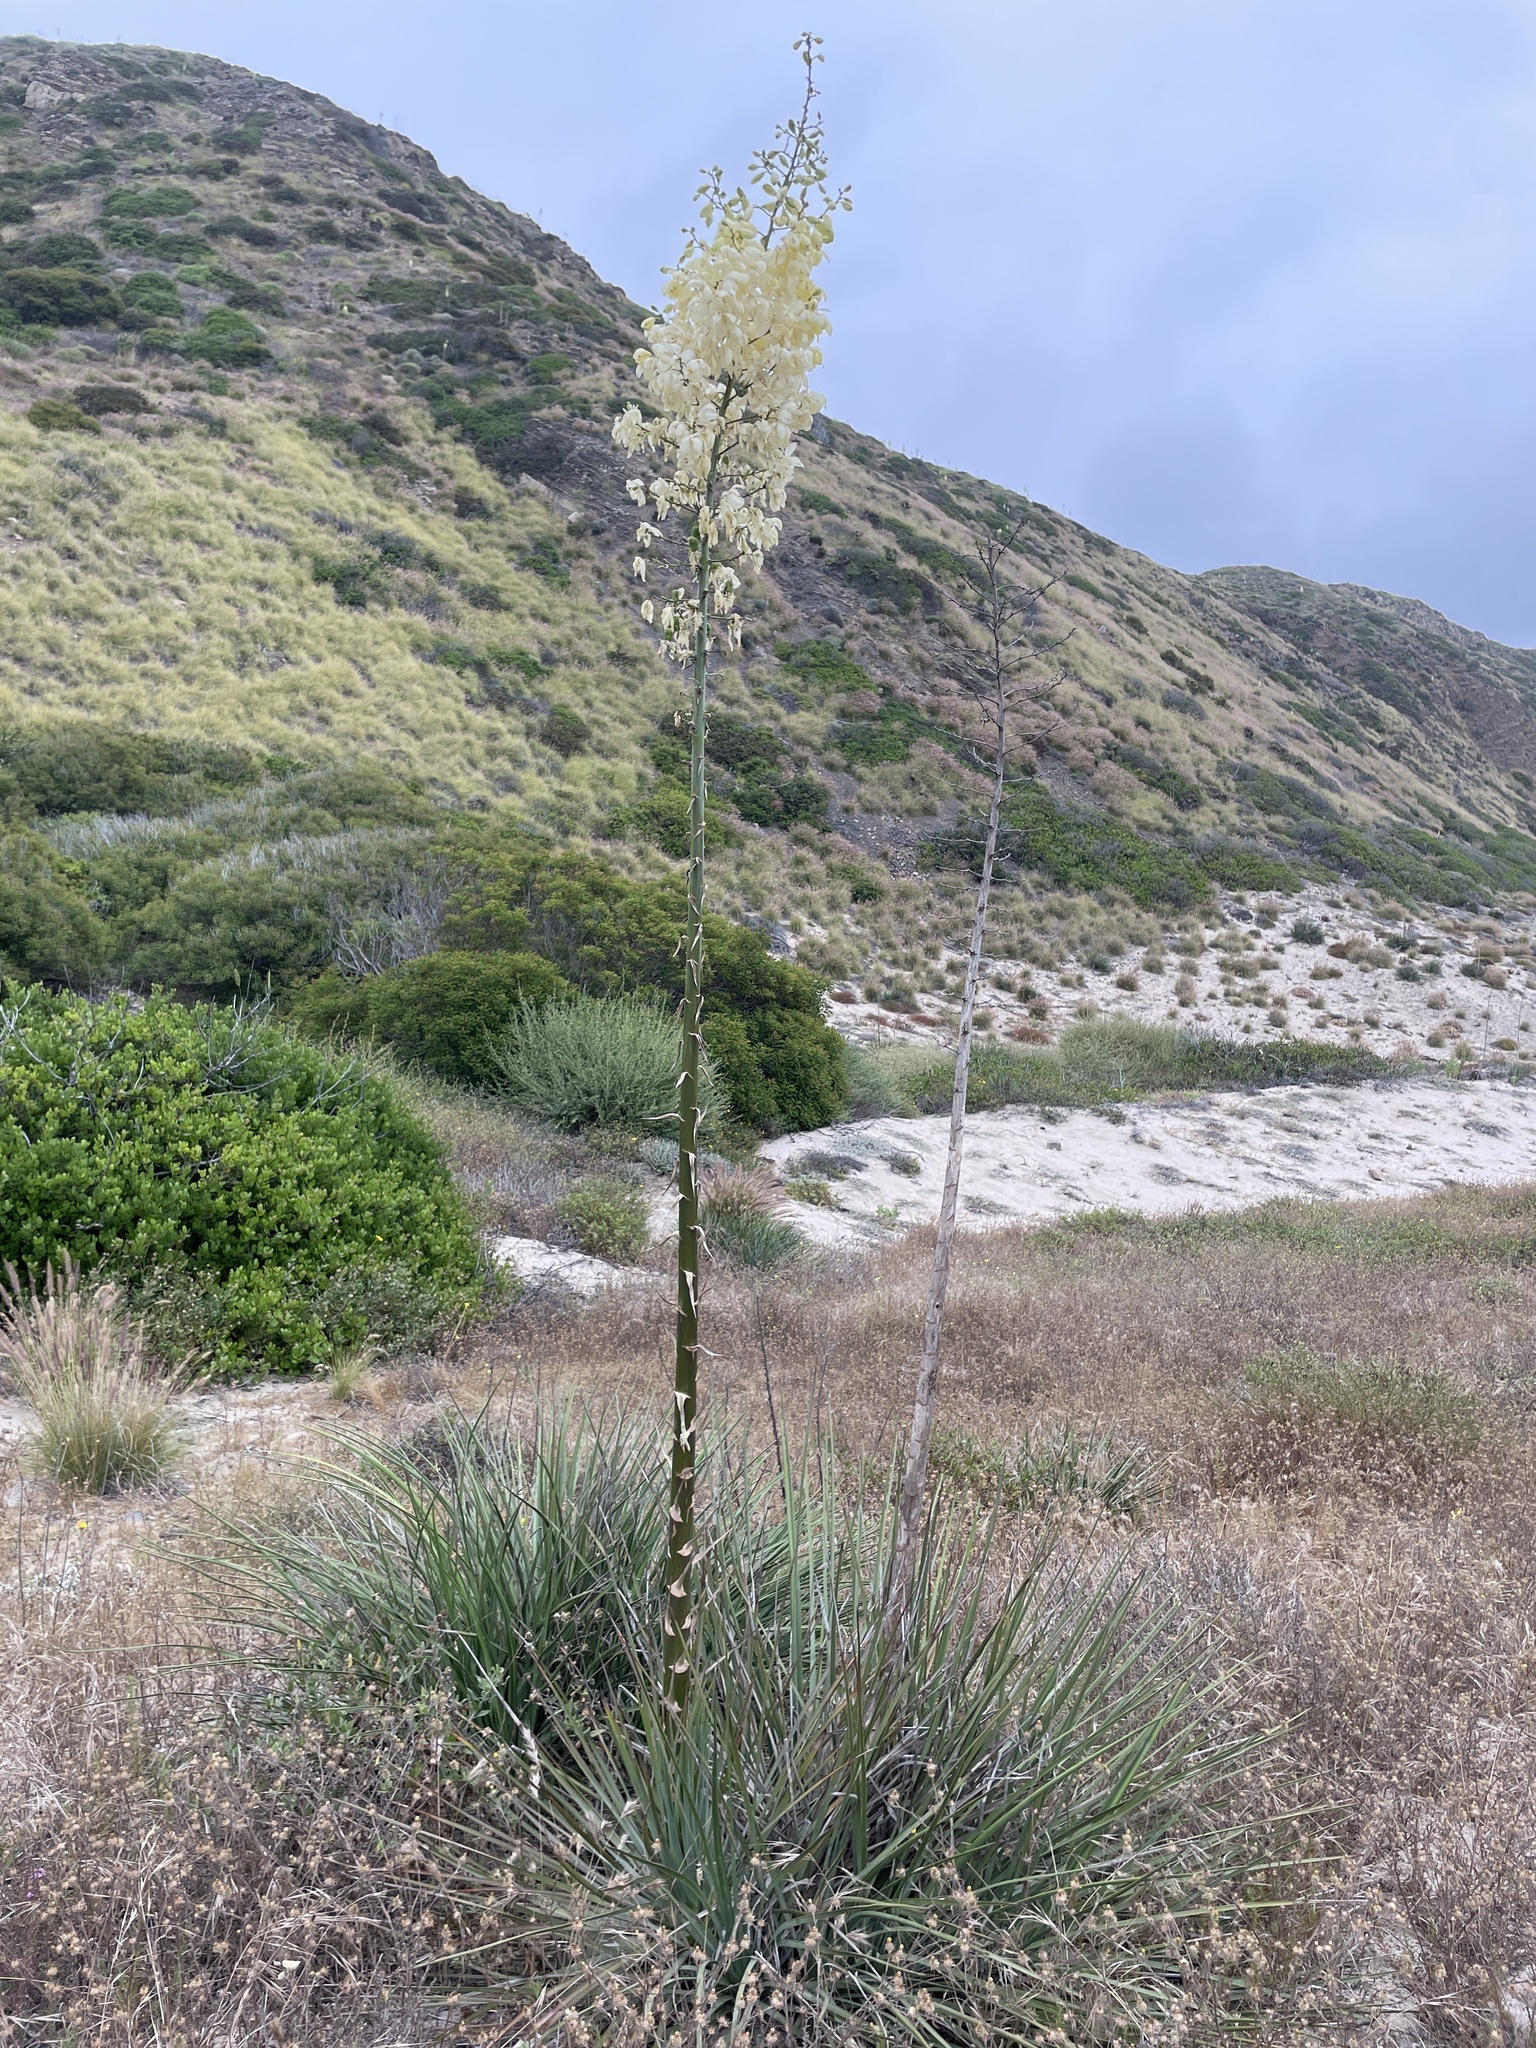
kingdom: Plantae
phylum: Tracheophyta
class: Liliopsida
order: Asparagales
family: Asparagaceae
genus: Hesperoyucca
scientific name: Hesperoyucca whipplei
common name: Our lord's-candle
